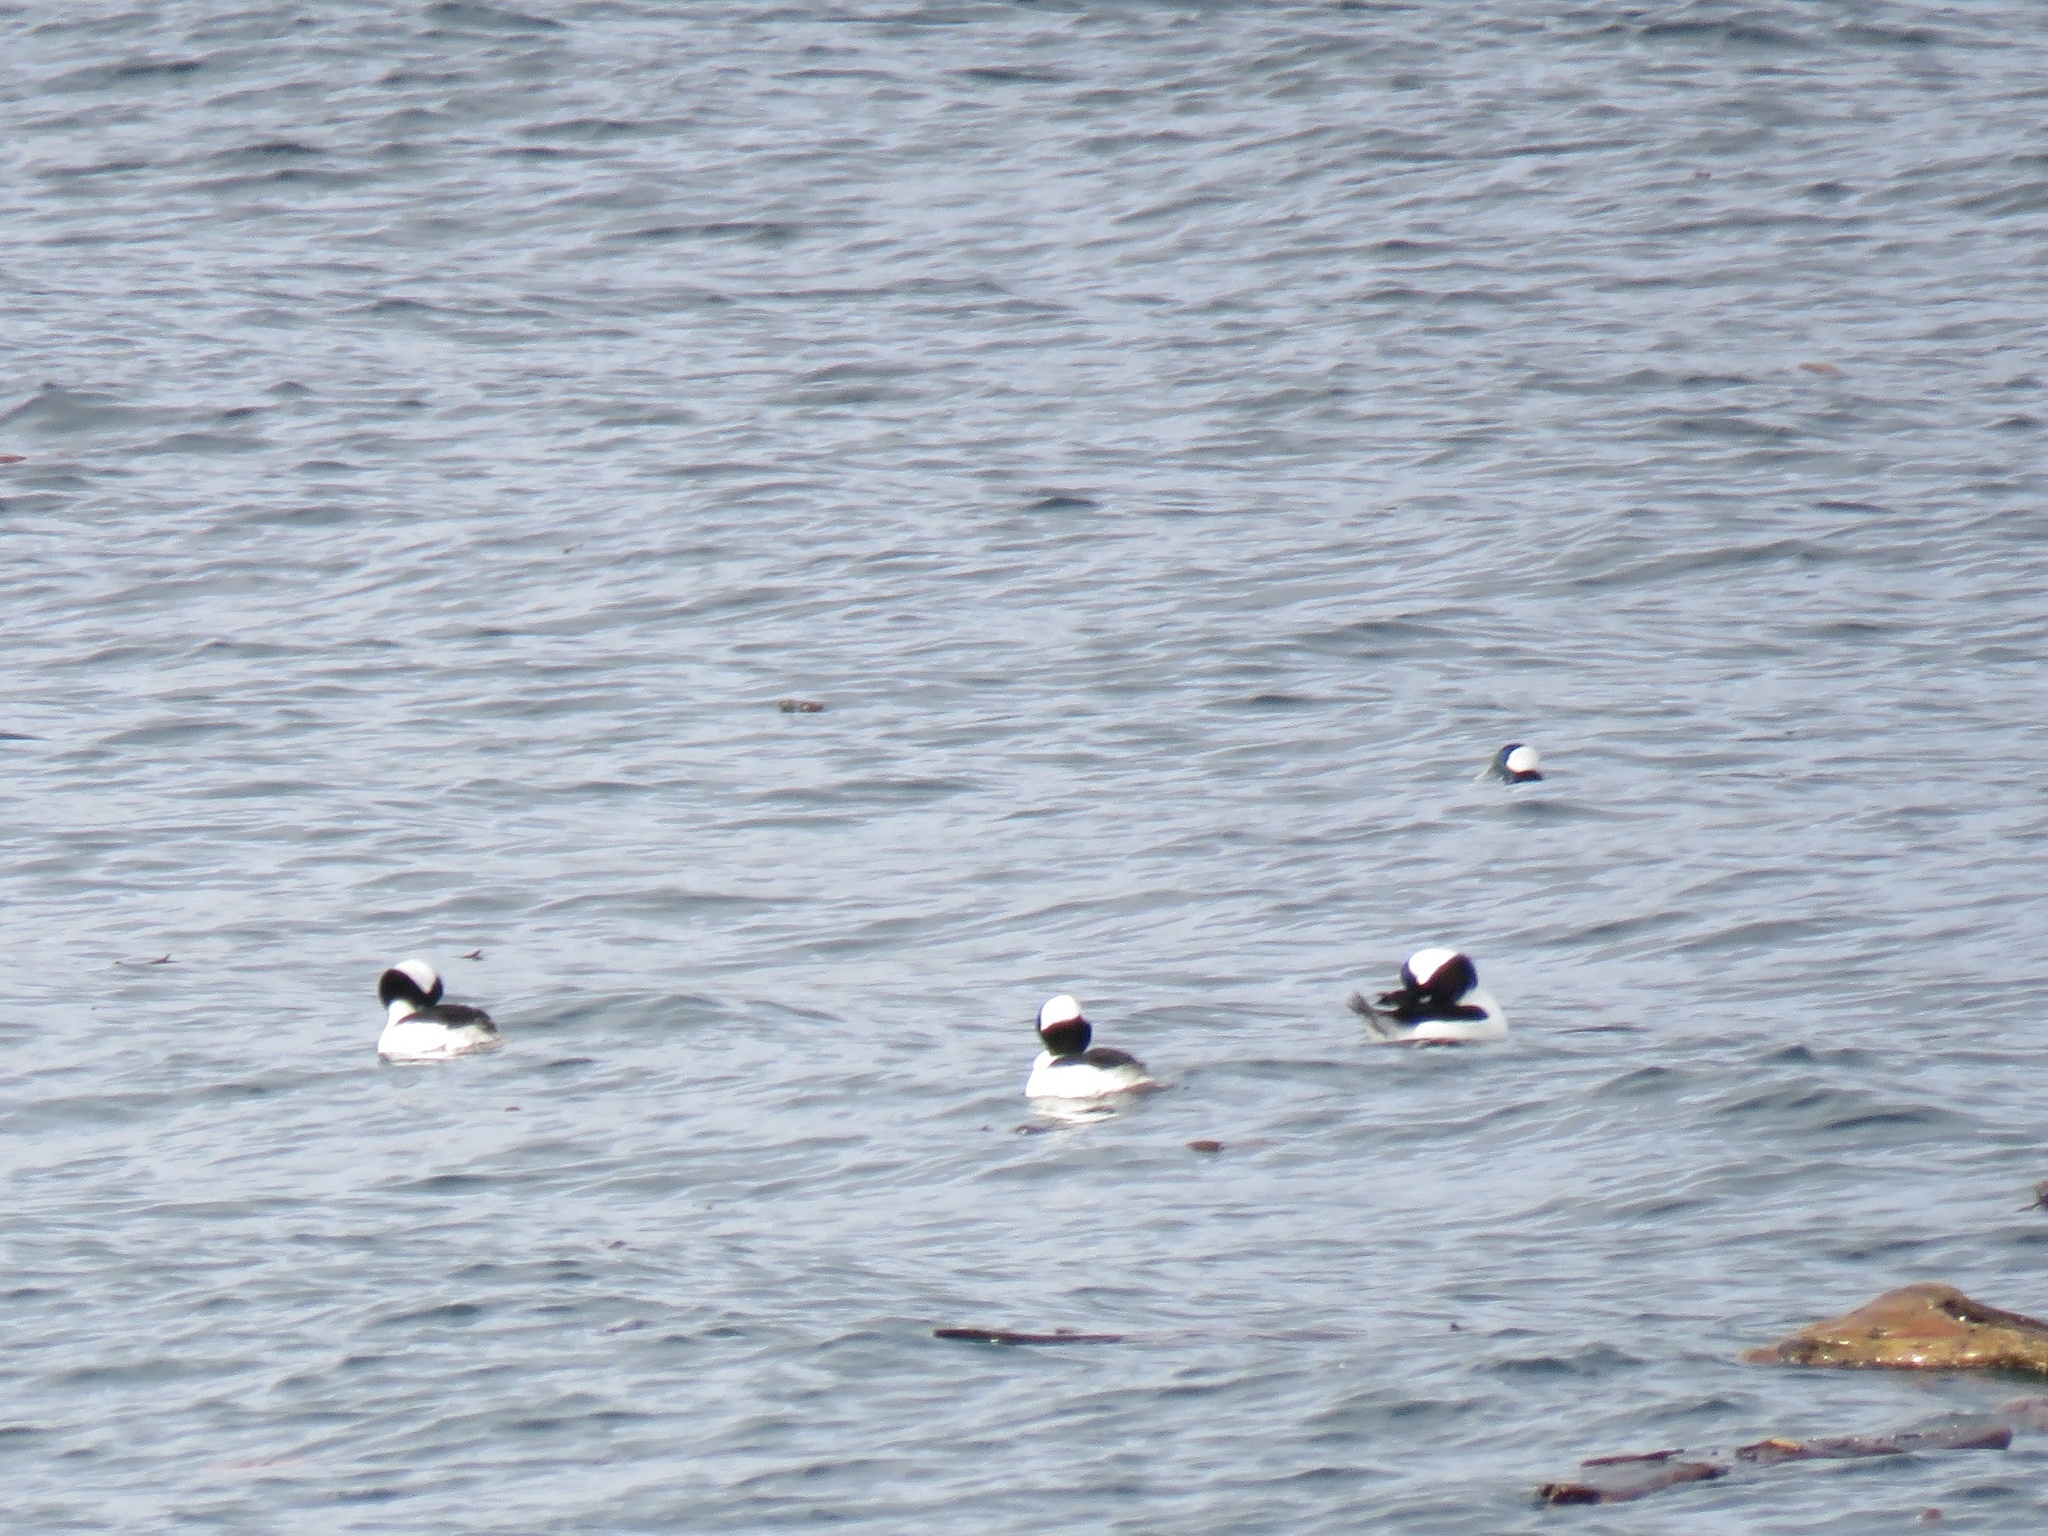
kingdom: Animalia
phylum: Chordata
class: Aves
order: Anseriformes
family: Anatidae
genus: Bucephala
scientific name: Bucephala albeola
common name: Bufflehead
